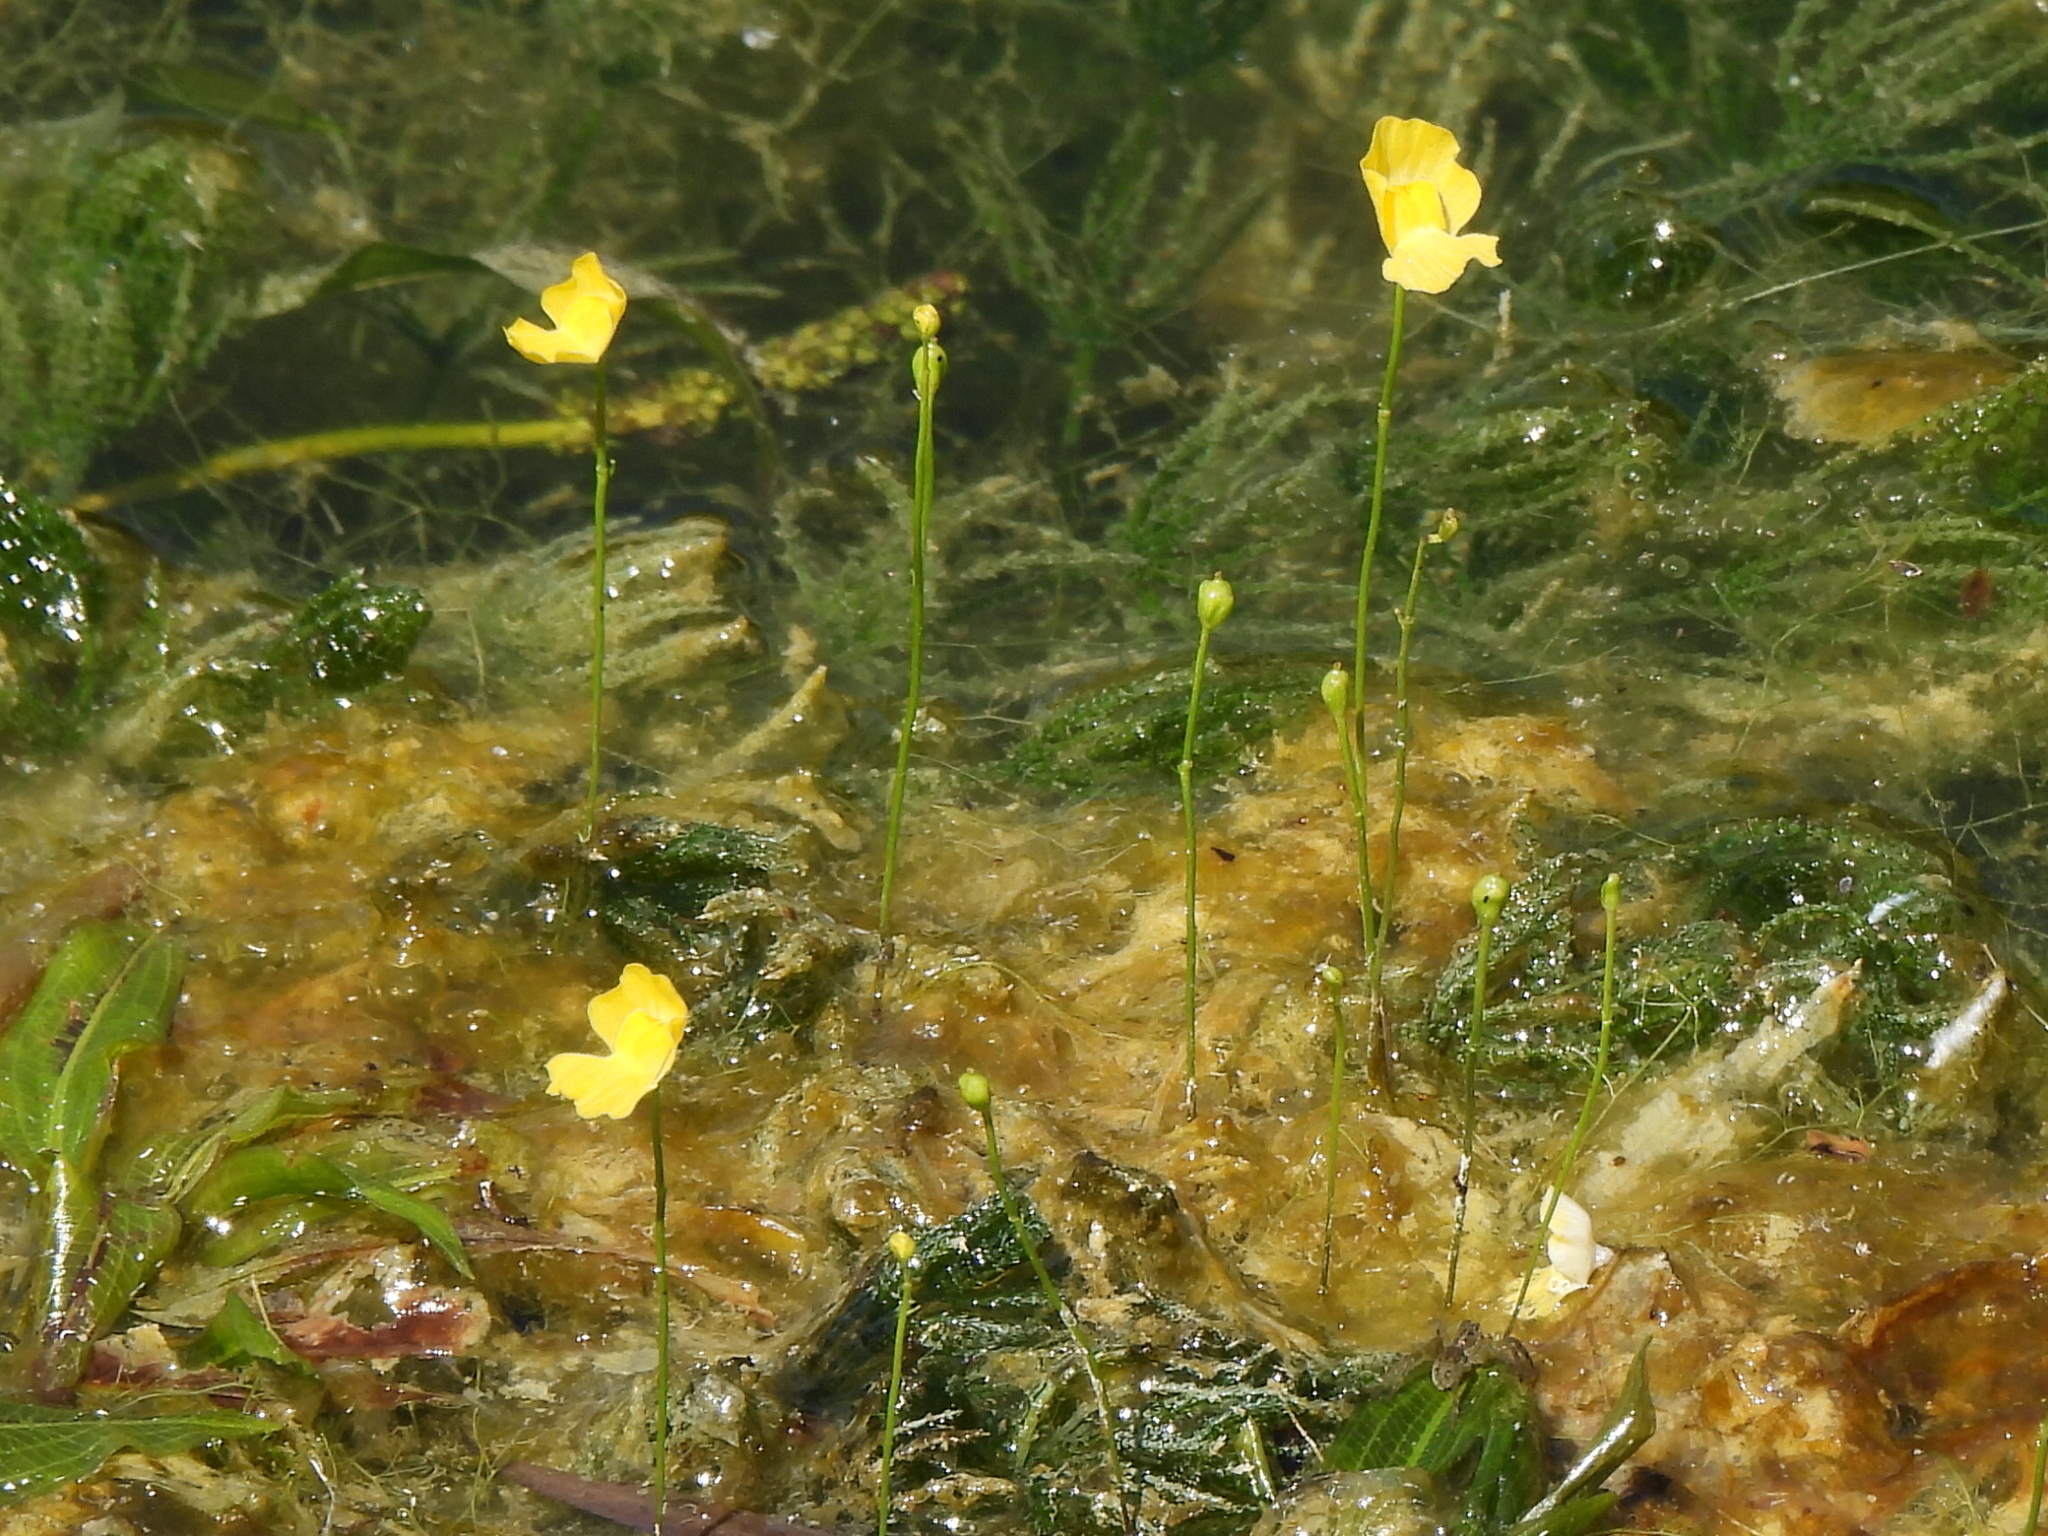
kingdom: Plantae
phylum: Tracheophyta
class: Magnoliopsida
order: Lamiales
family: Lentibulariaceae
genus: Utricularia
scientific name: Utricularia gibba
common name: Humped bladderwort
